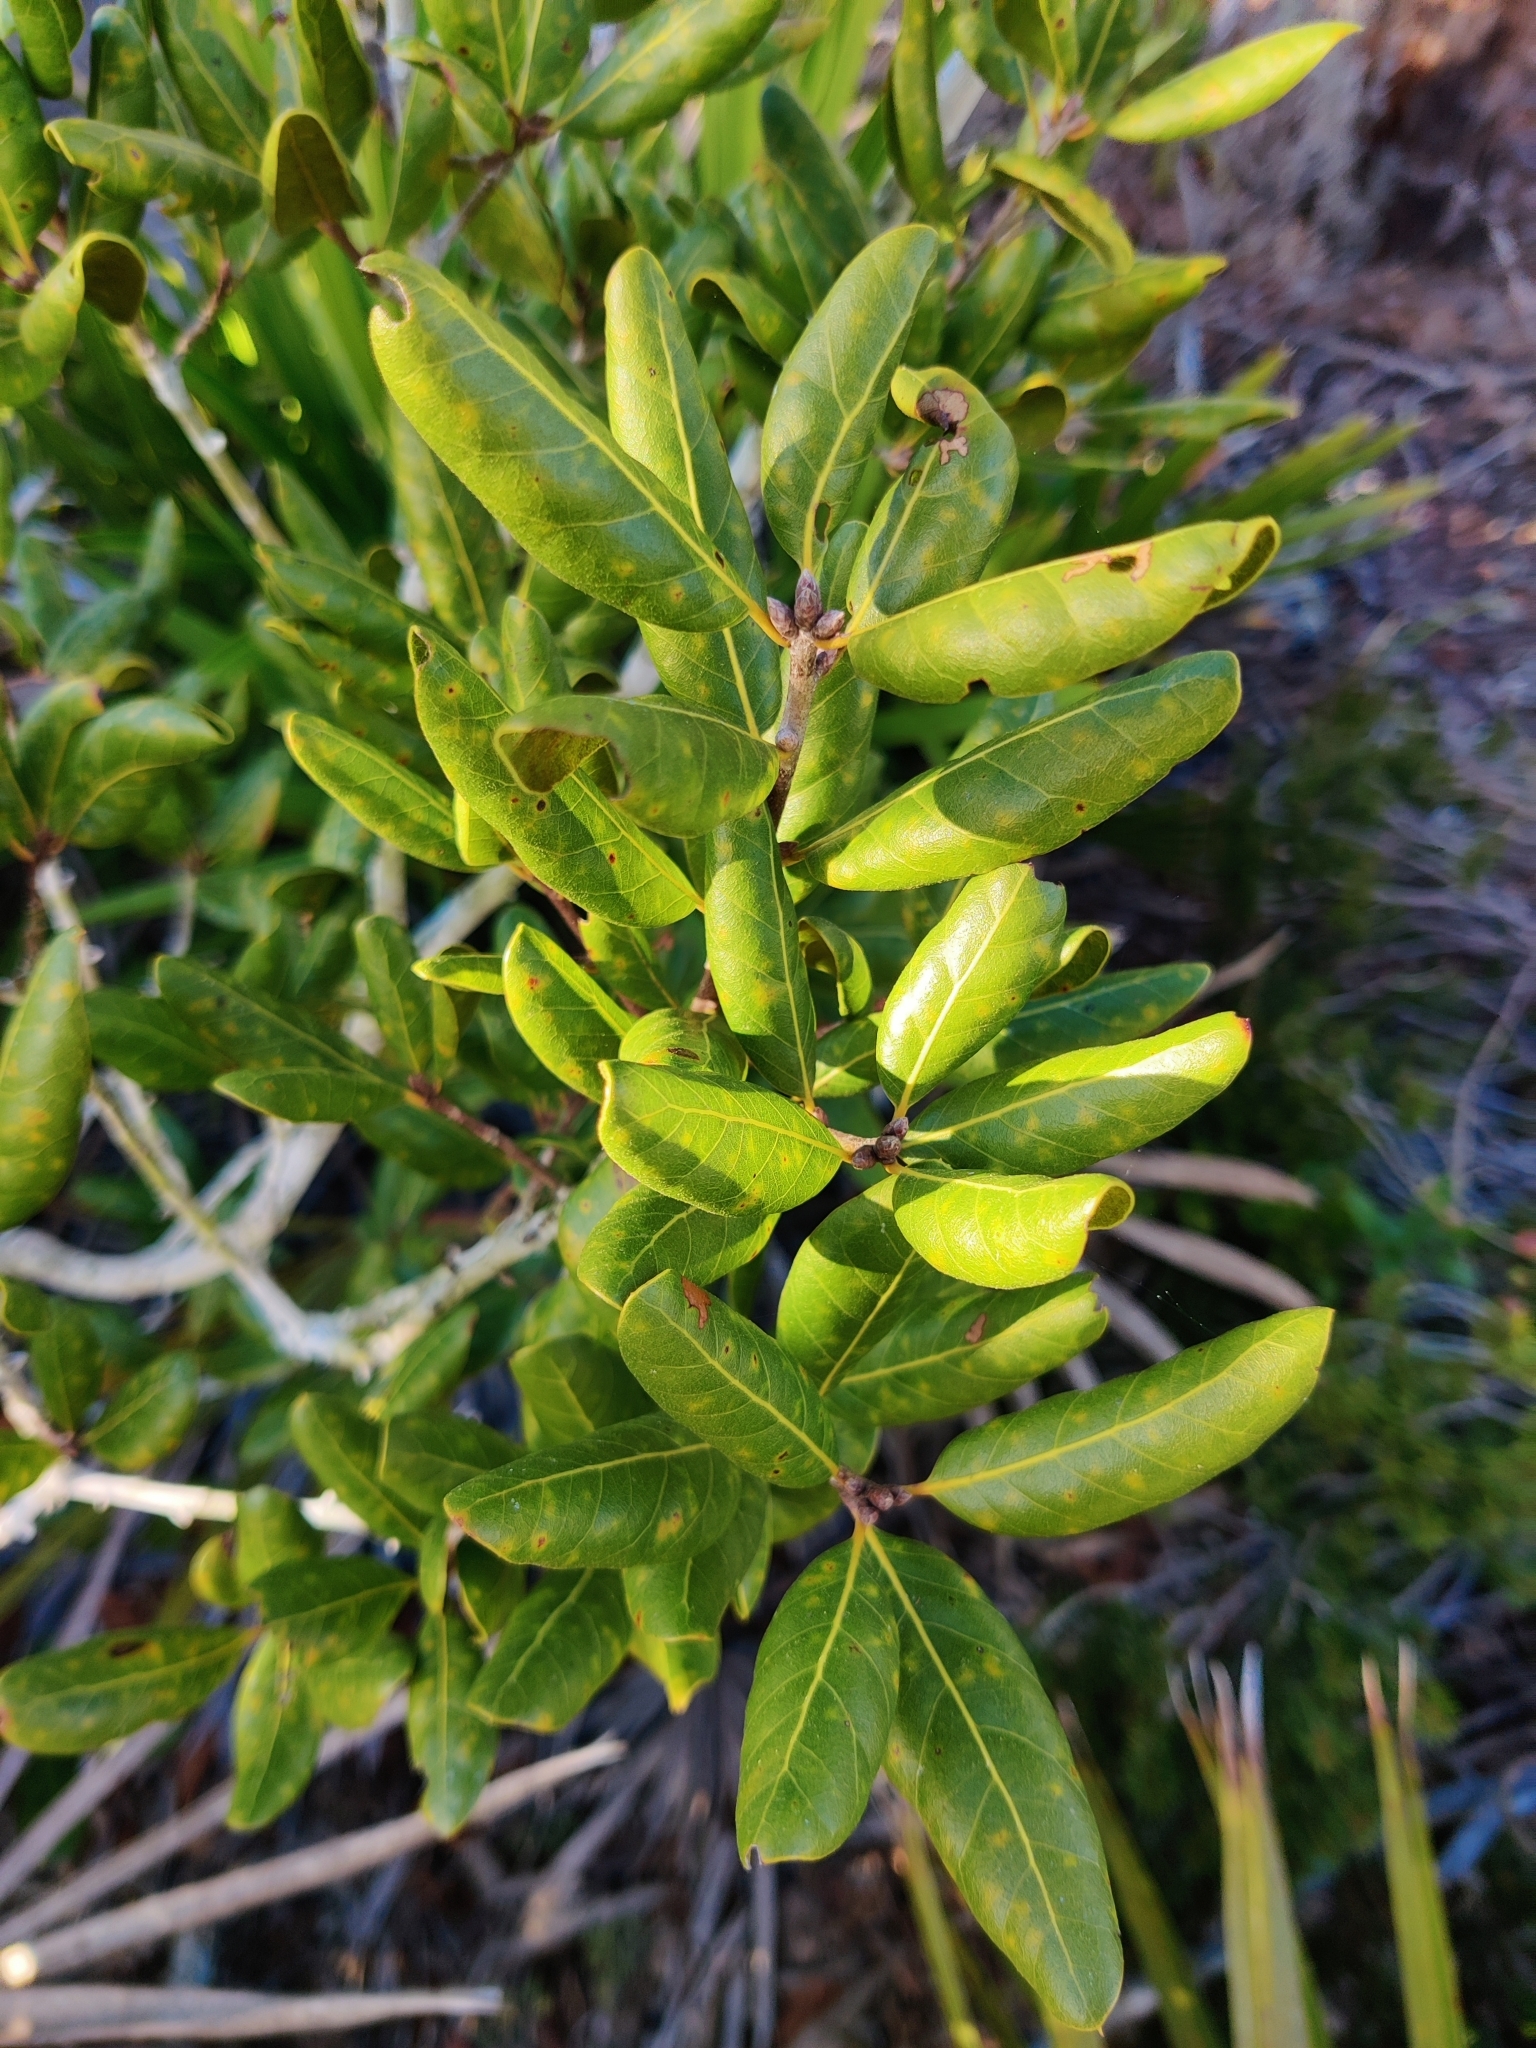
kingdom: Plantae
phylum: Tracheophyta
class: Magnoliopsida
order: Fagales
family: Fagaceae
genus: Quercus
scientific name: Quercus inopina
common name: Sandhill oak
